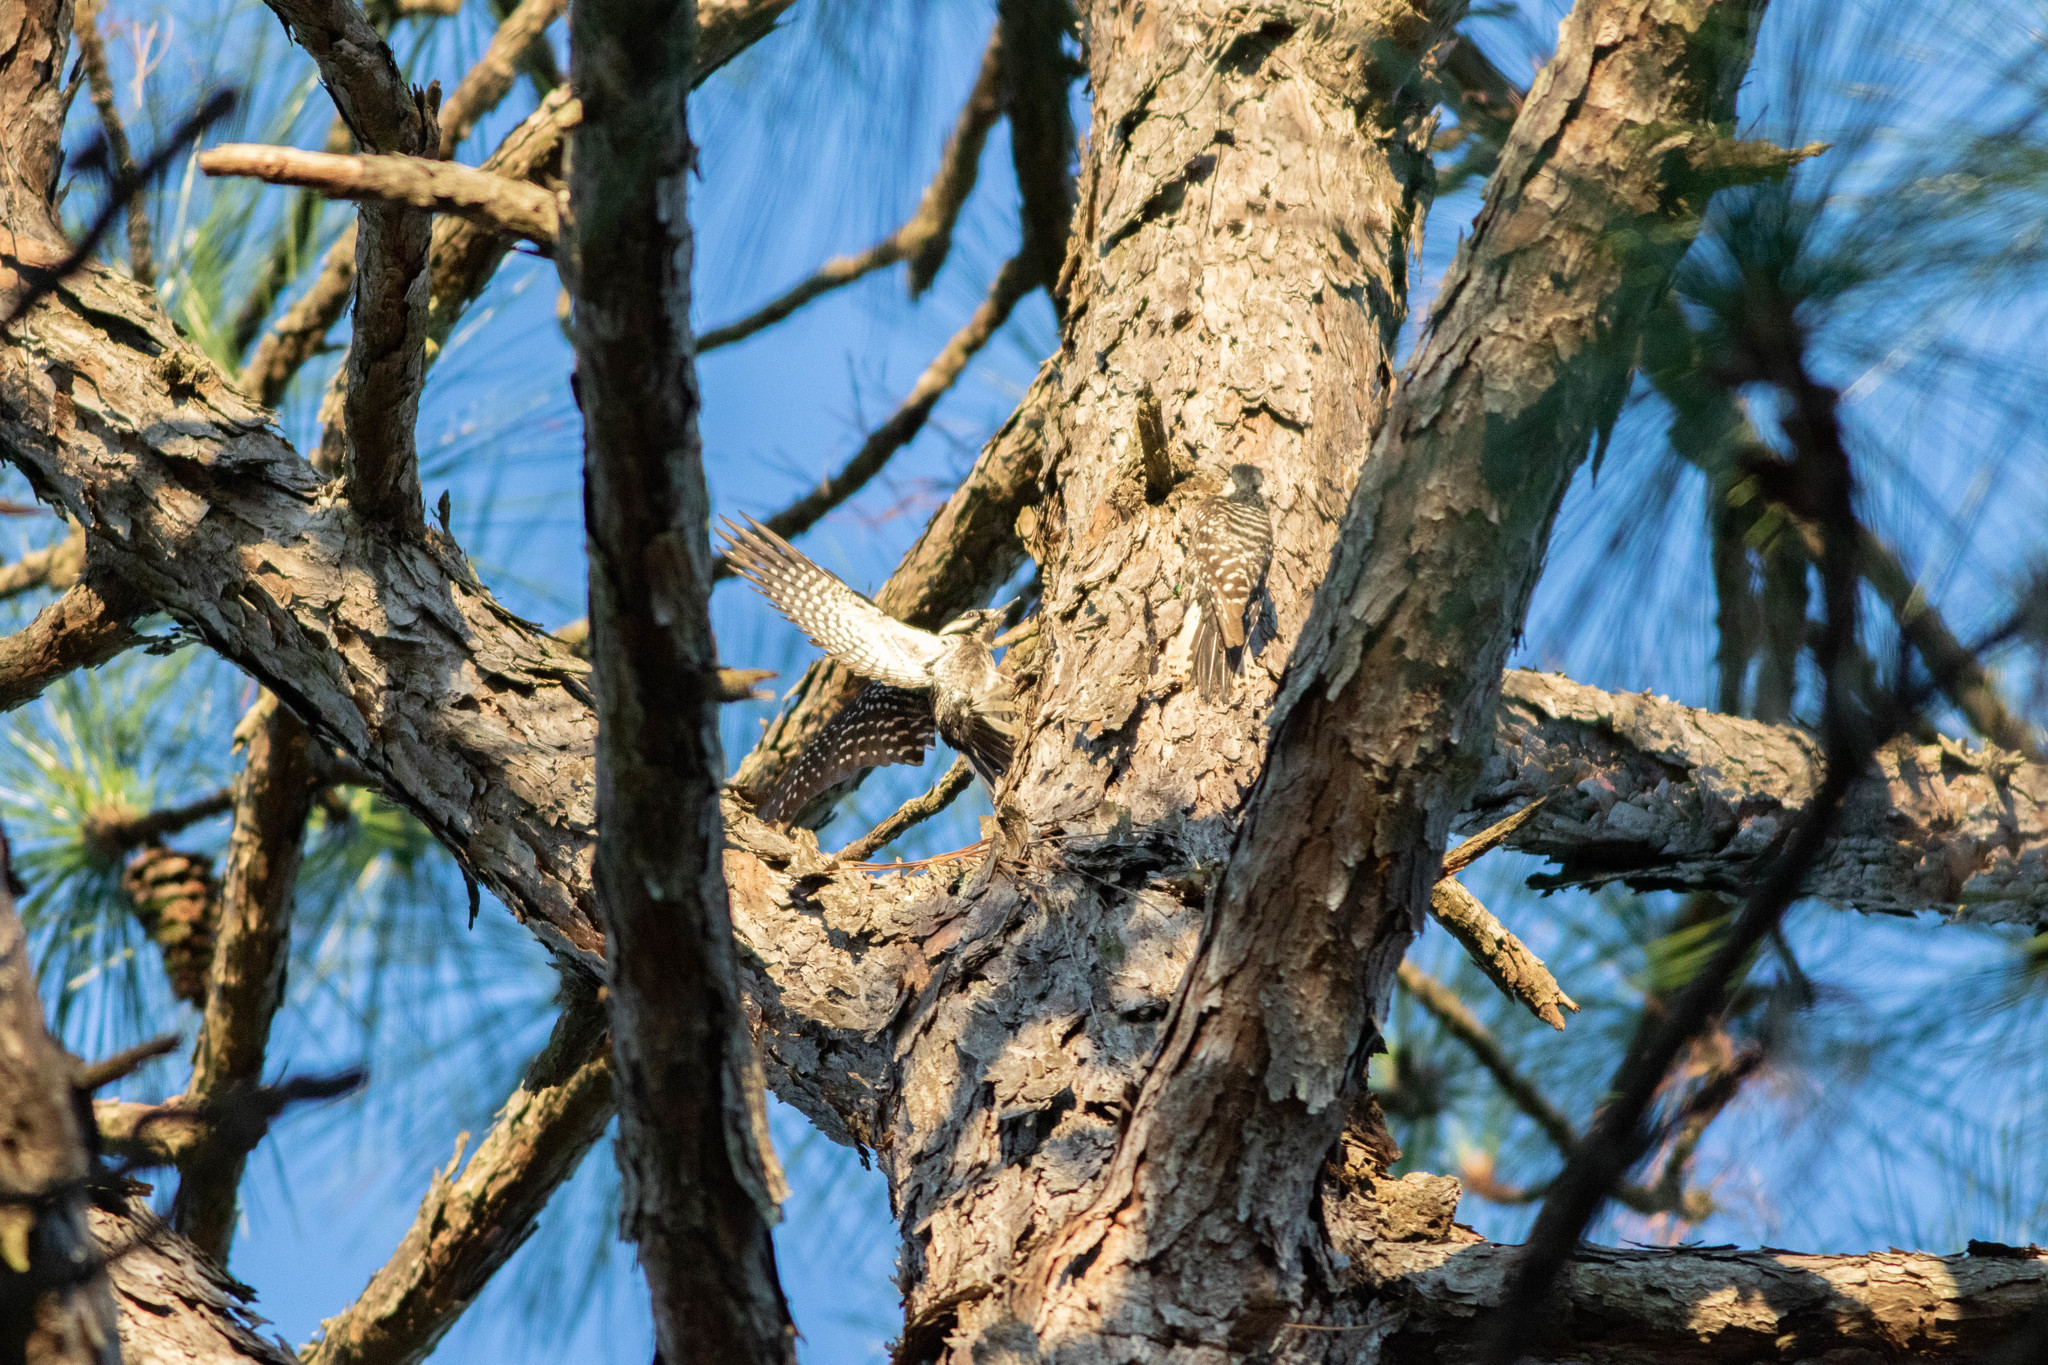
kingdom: Animalia
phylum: Chordata
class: Aves
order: Piciformes
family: Picidae
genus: Leuconotopicus
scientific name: Leuconotopicus borealis
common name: Red-cockaded woodpecker
